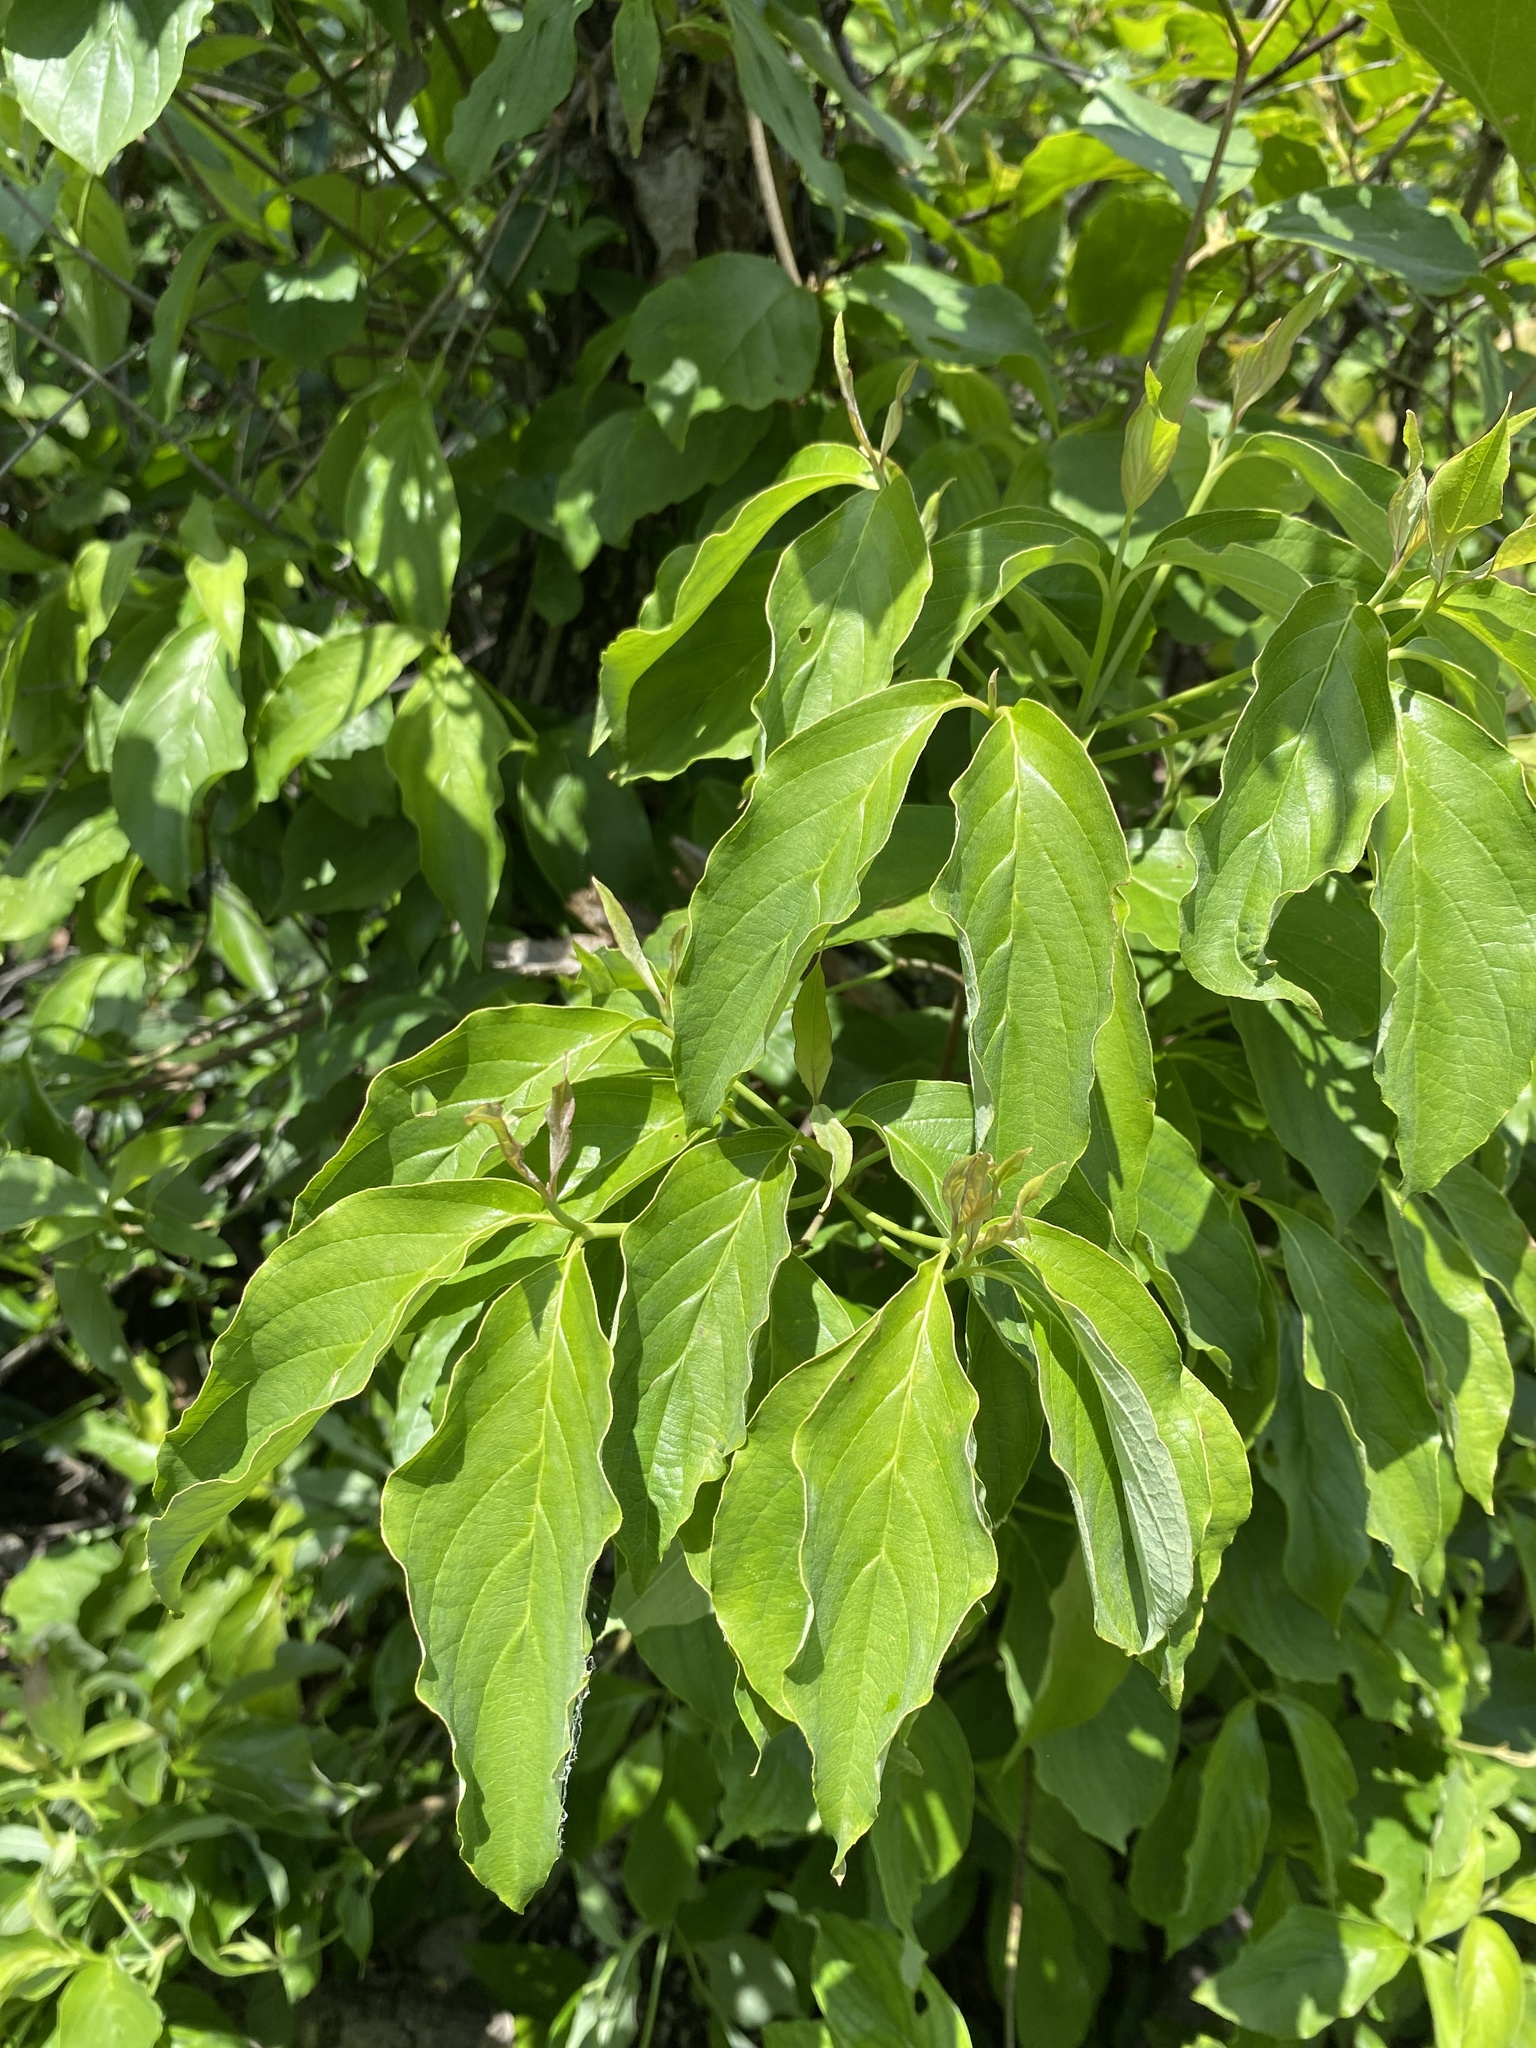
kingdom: Plantae
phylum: Tracheophyta
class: Magnoliopsida
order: Cornales
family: Cornaceae
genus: Cornus
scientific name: Cornus florida
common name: Flowering dogwood
